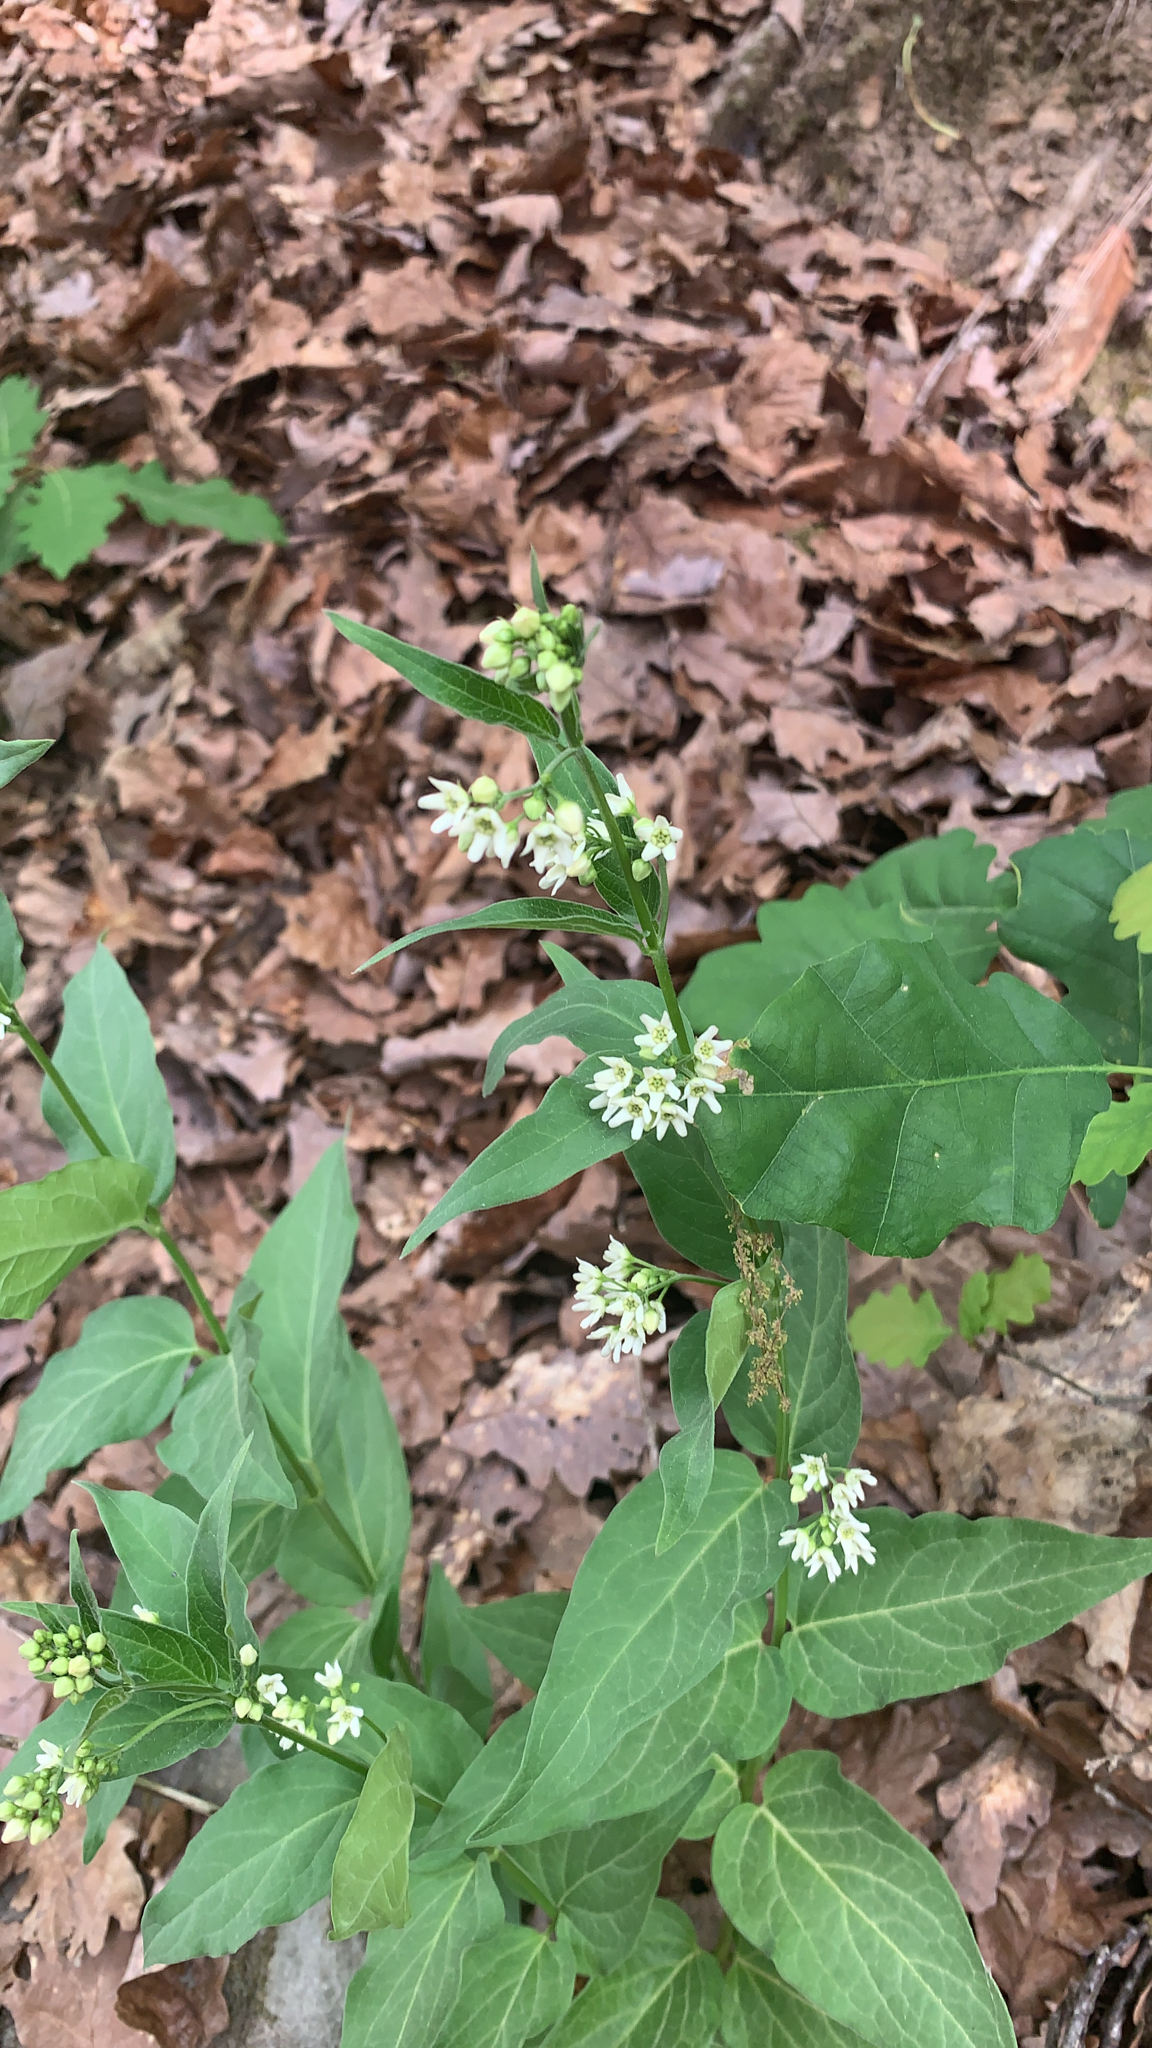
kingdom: Plantae
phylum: Tracheophyta
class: Magnoliopsida
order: Gentianales
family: Apocynaceae
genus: Vincetoxicum
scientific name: Vincetoxicum hirundinaria
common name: White swallowwort
